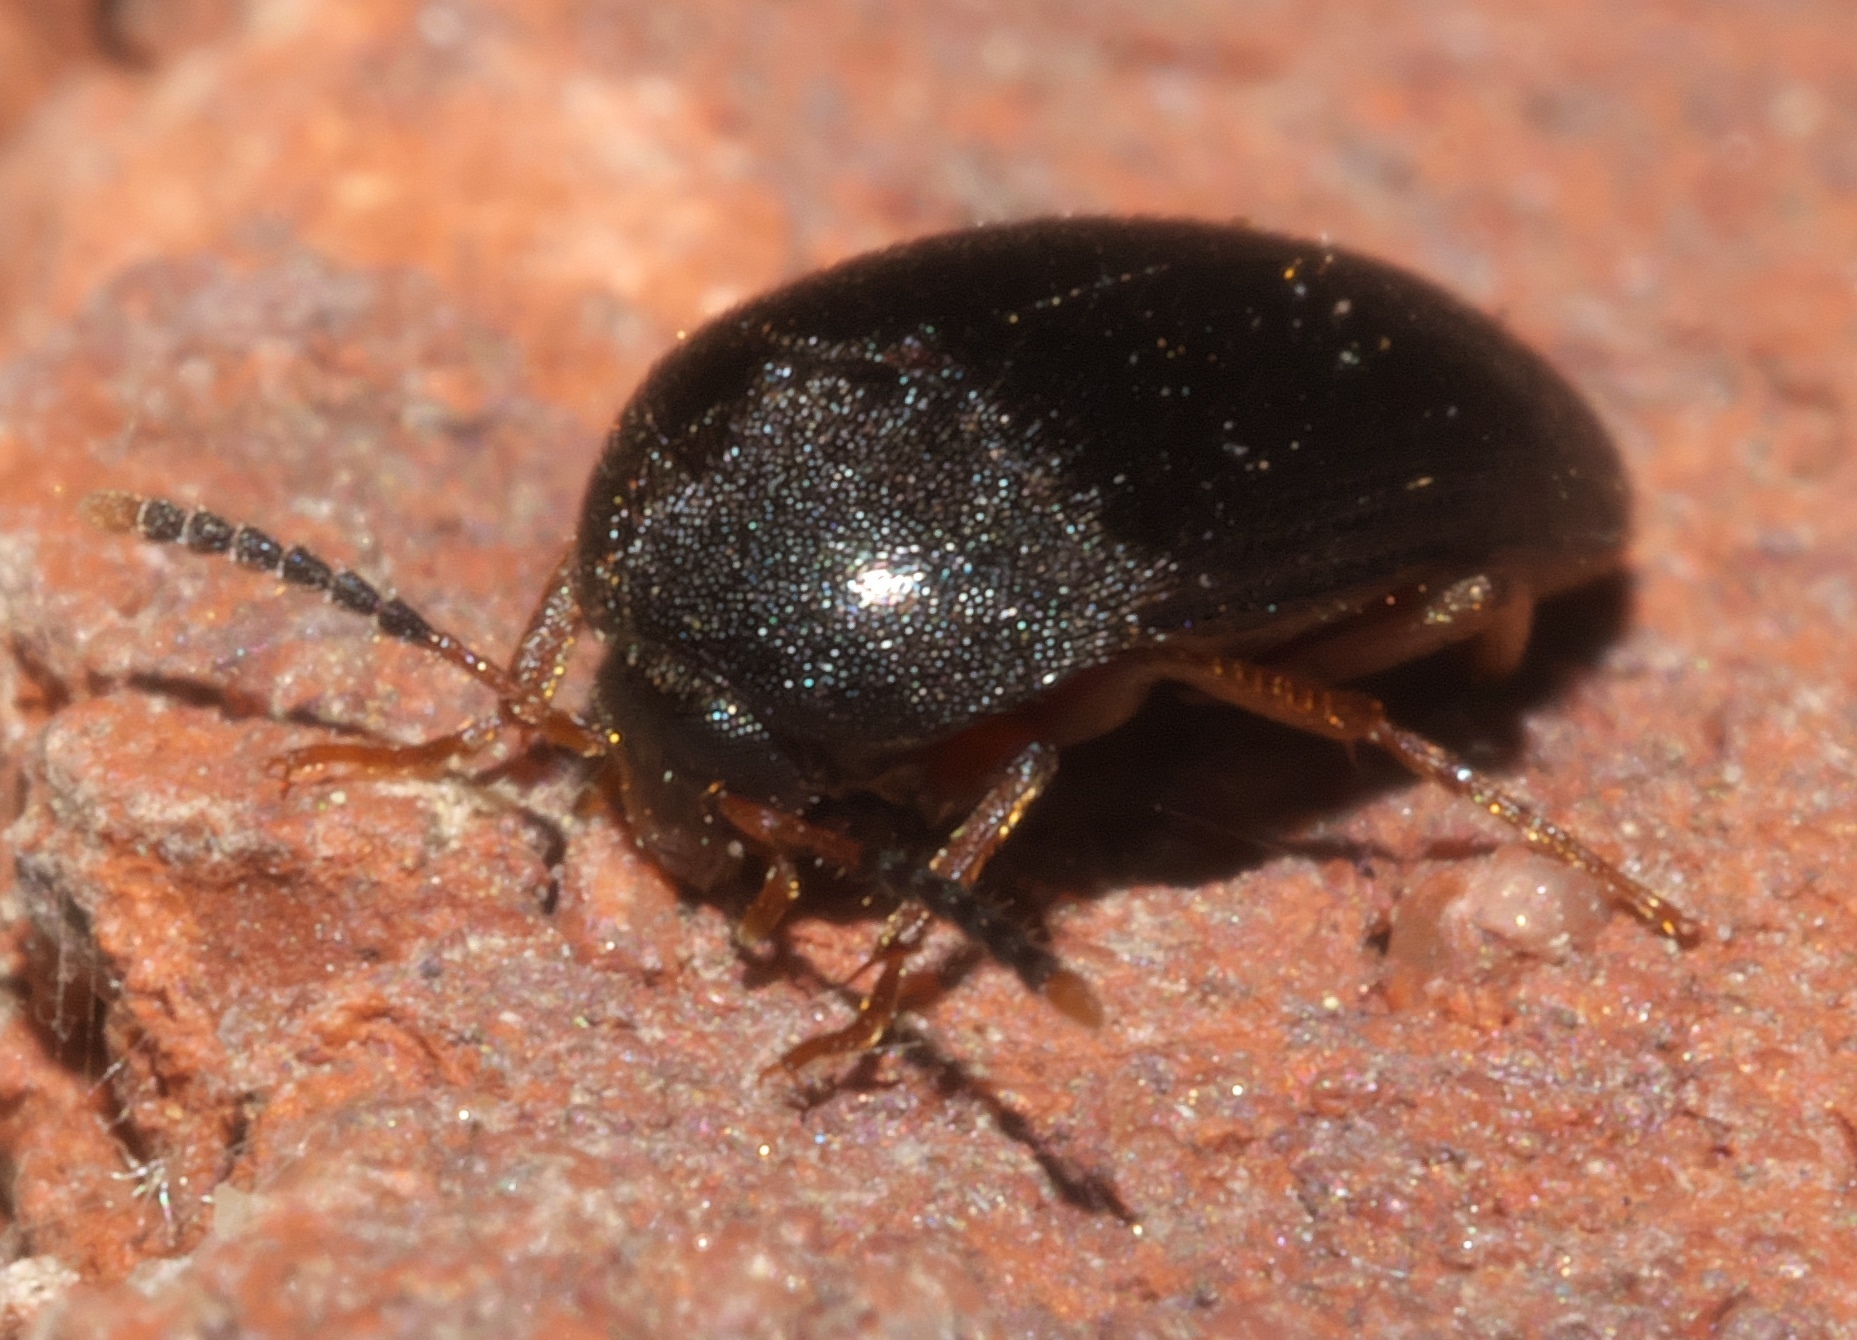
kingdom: Animalia
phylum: Arthropoda
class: Insecta
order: Coleoptera
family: Tetratomidae
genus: Eustrophopsis
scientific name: Eustrophopsis bicolor
